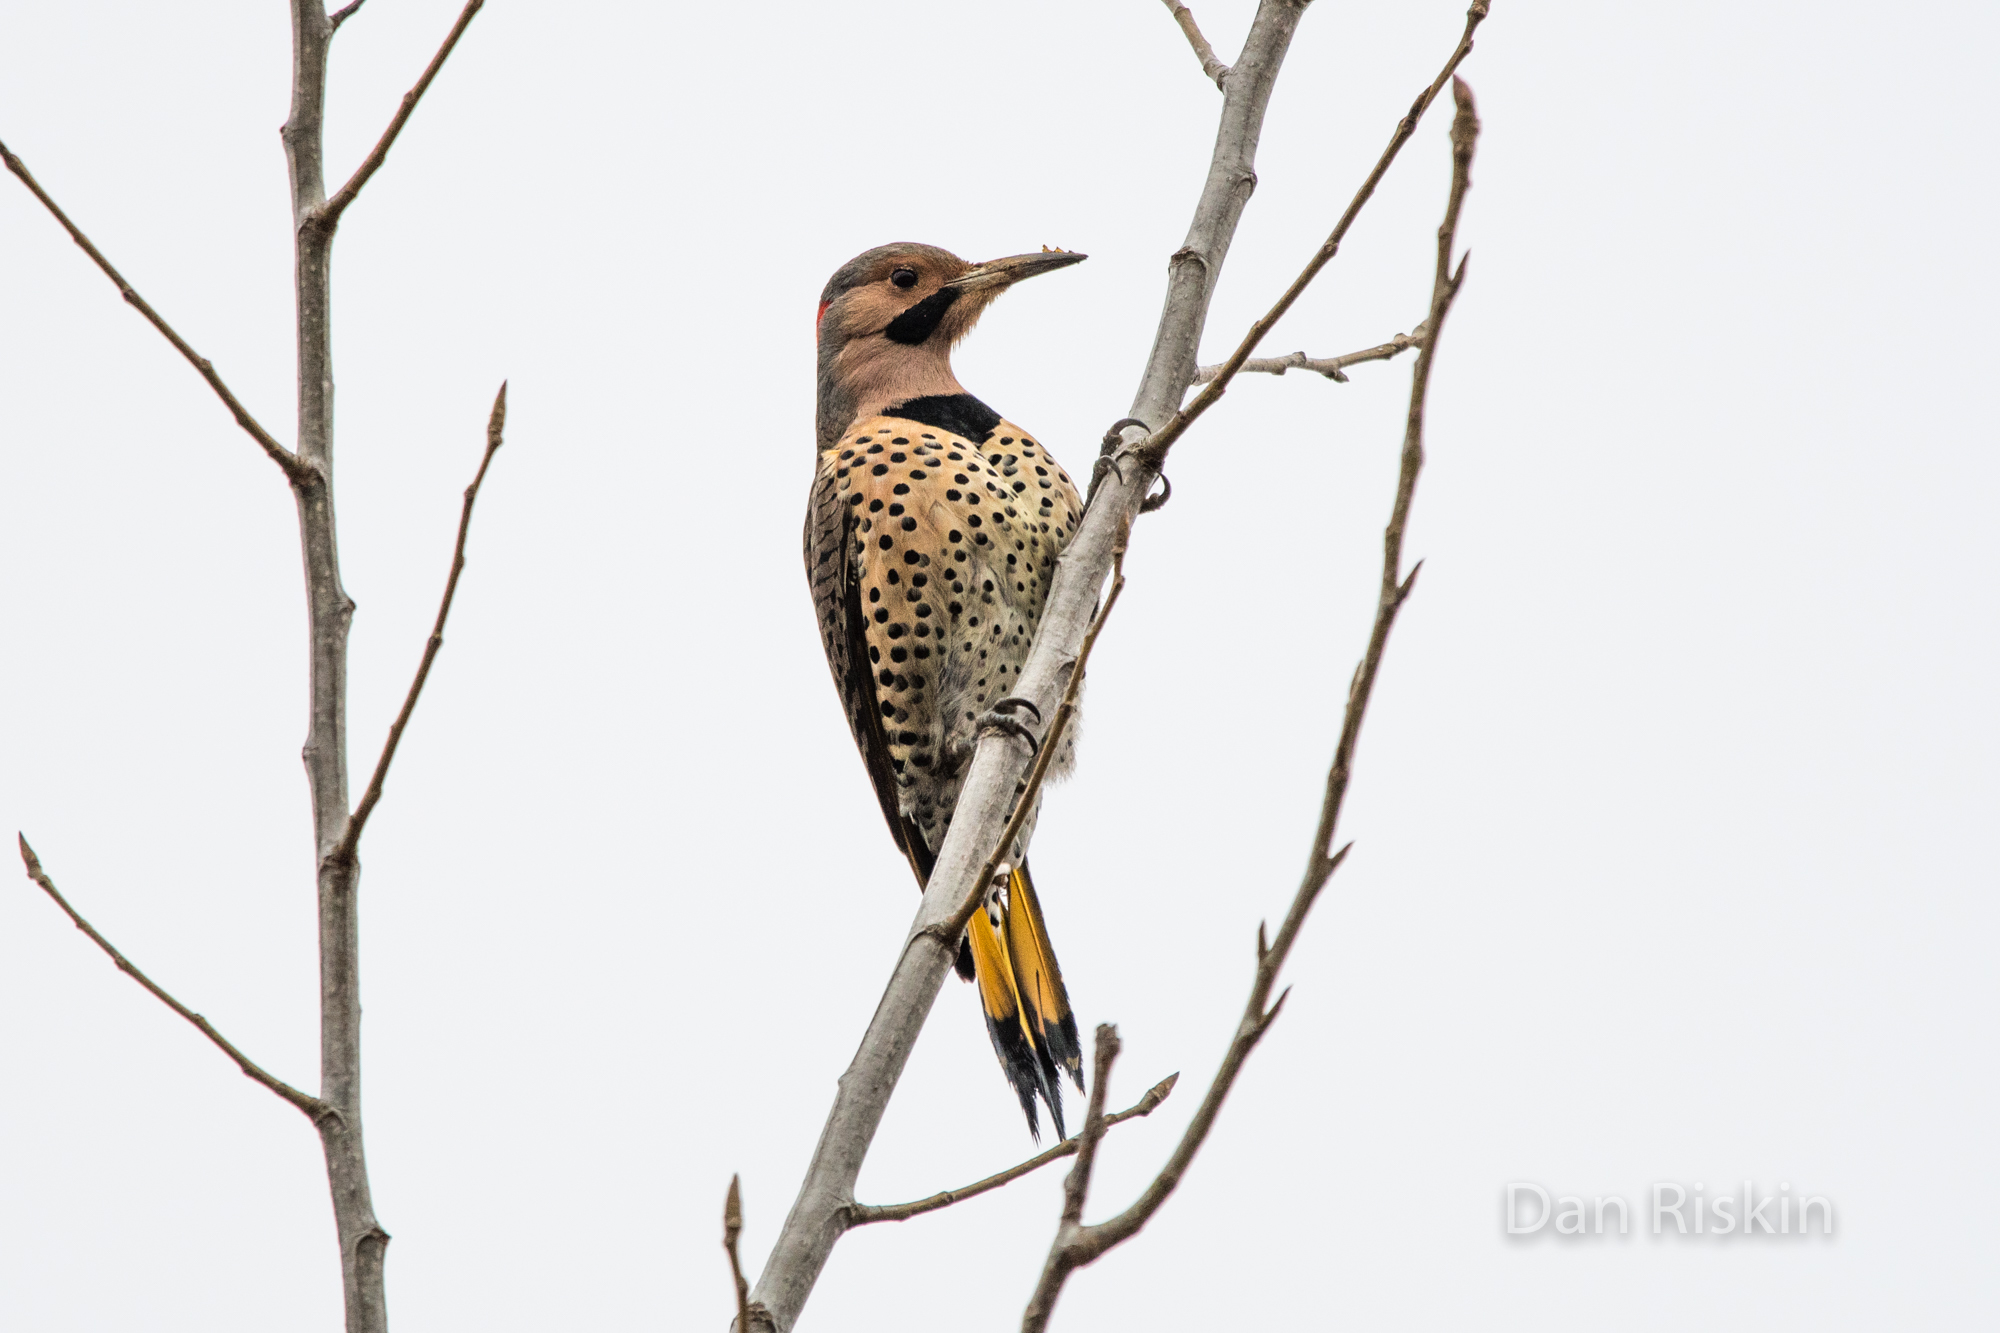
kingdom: Animalia
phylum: Chordata
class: Aves
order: Piciformes
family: Picidae
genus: Colaptes
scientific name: Colaptes auratus
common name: Northern flicker
